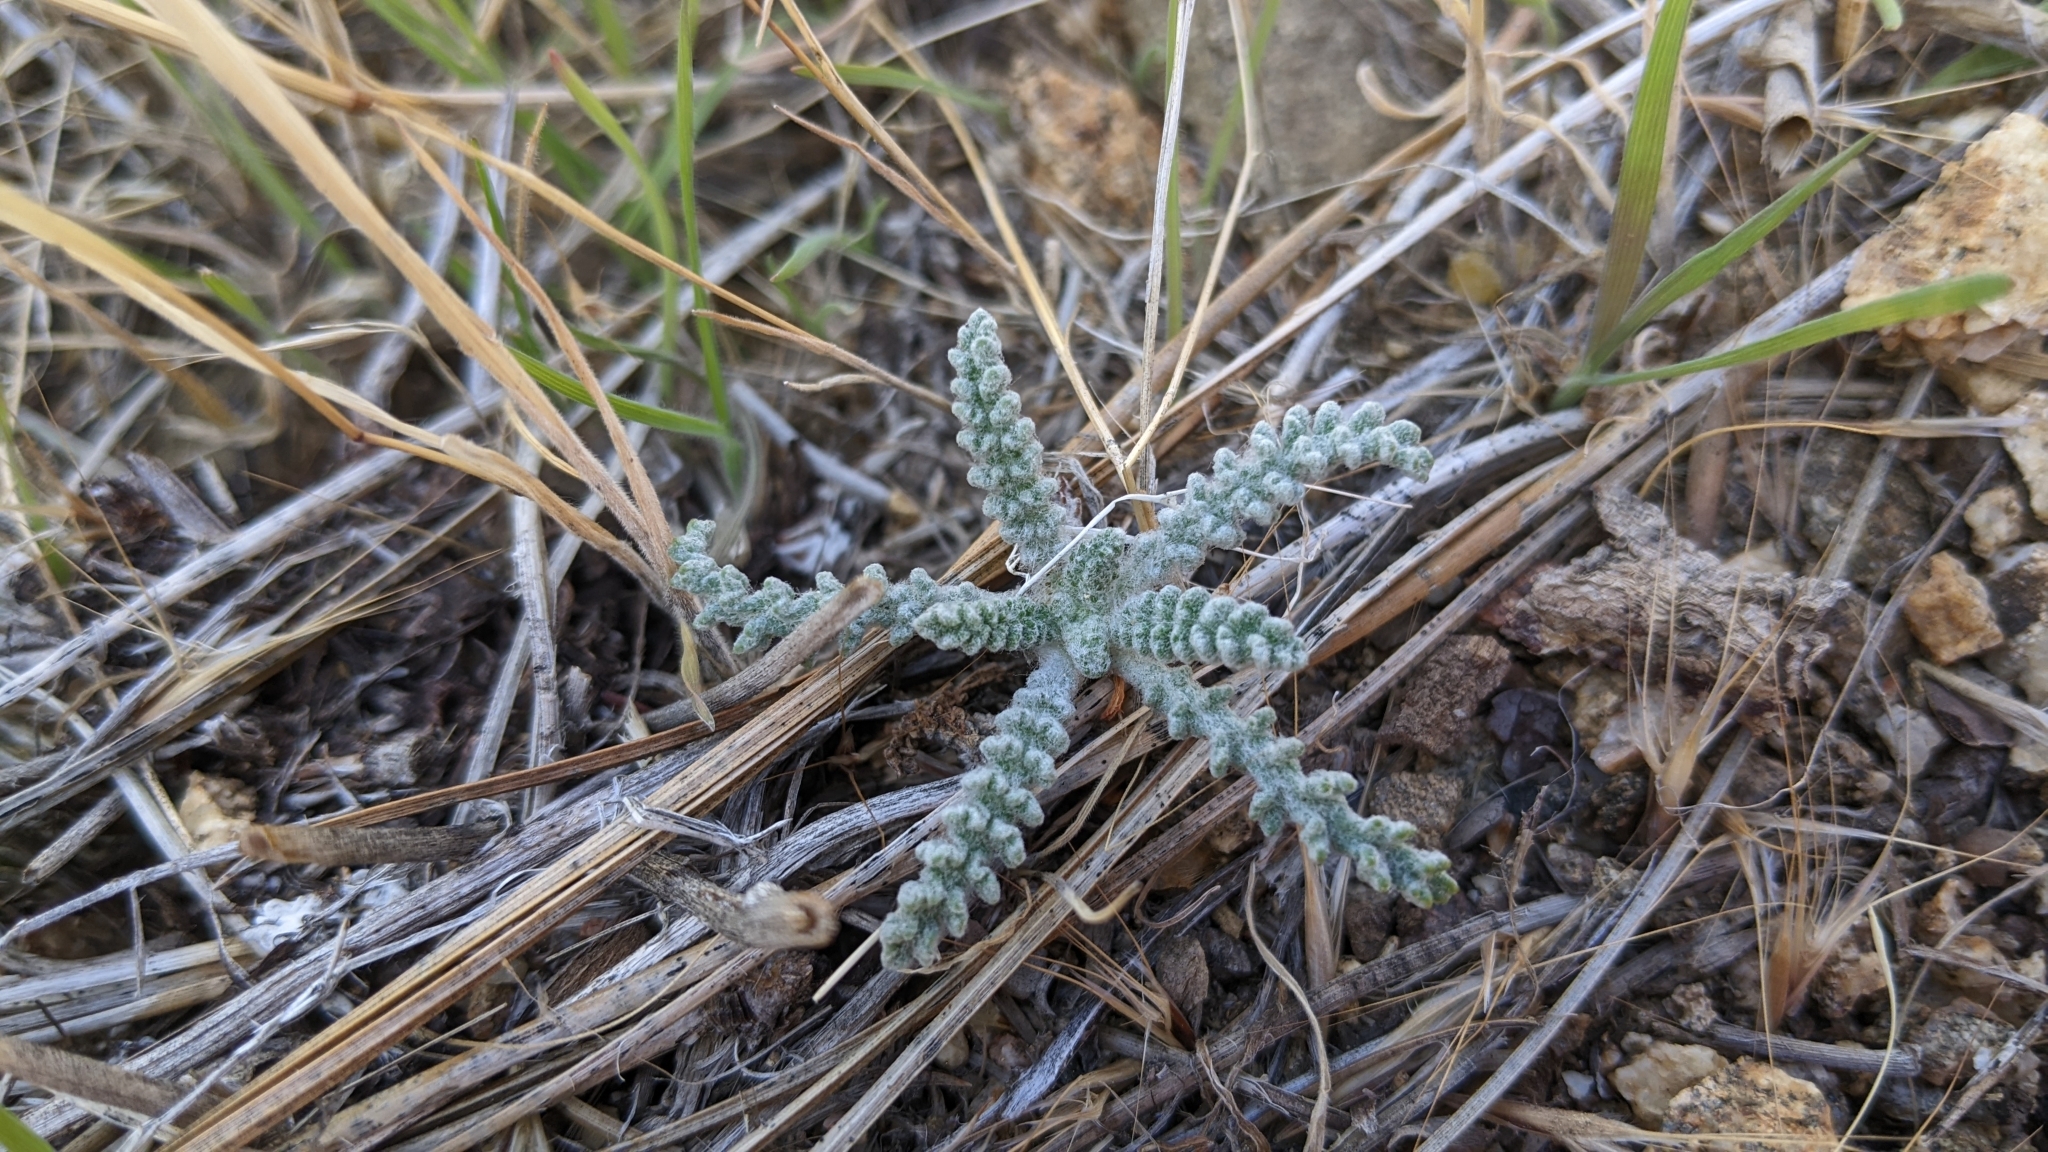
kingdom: Plantae
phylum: Tracheophyta
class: Magnoliopsida
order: Asterales
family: Asteraceae
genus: Chaenactis
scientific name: Chaenactis santolinoides
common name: Santolina pincushion
